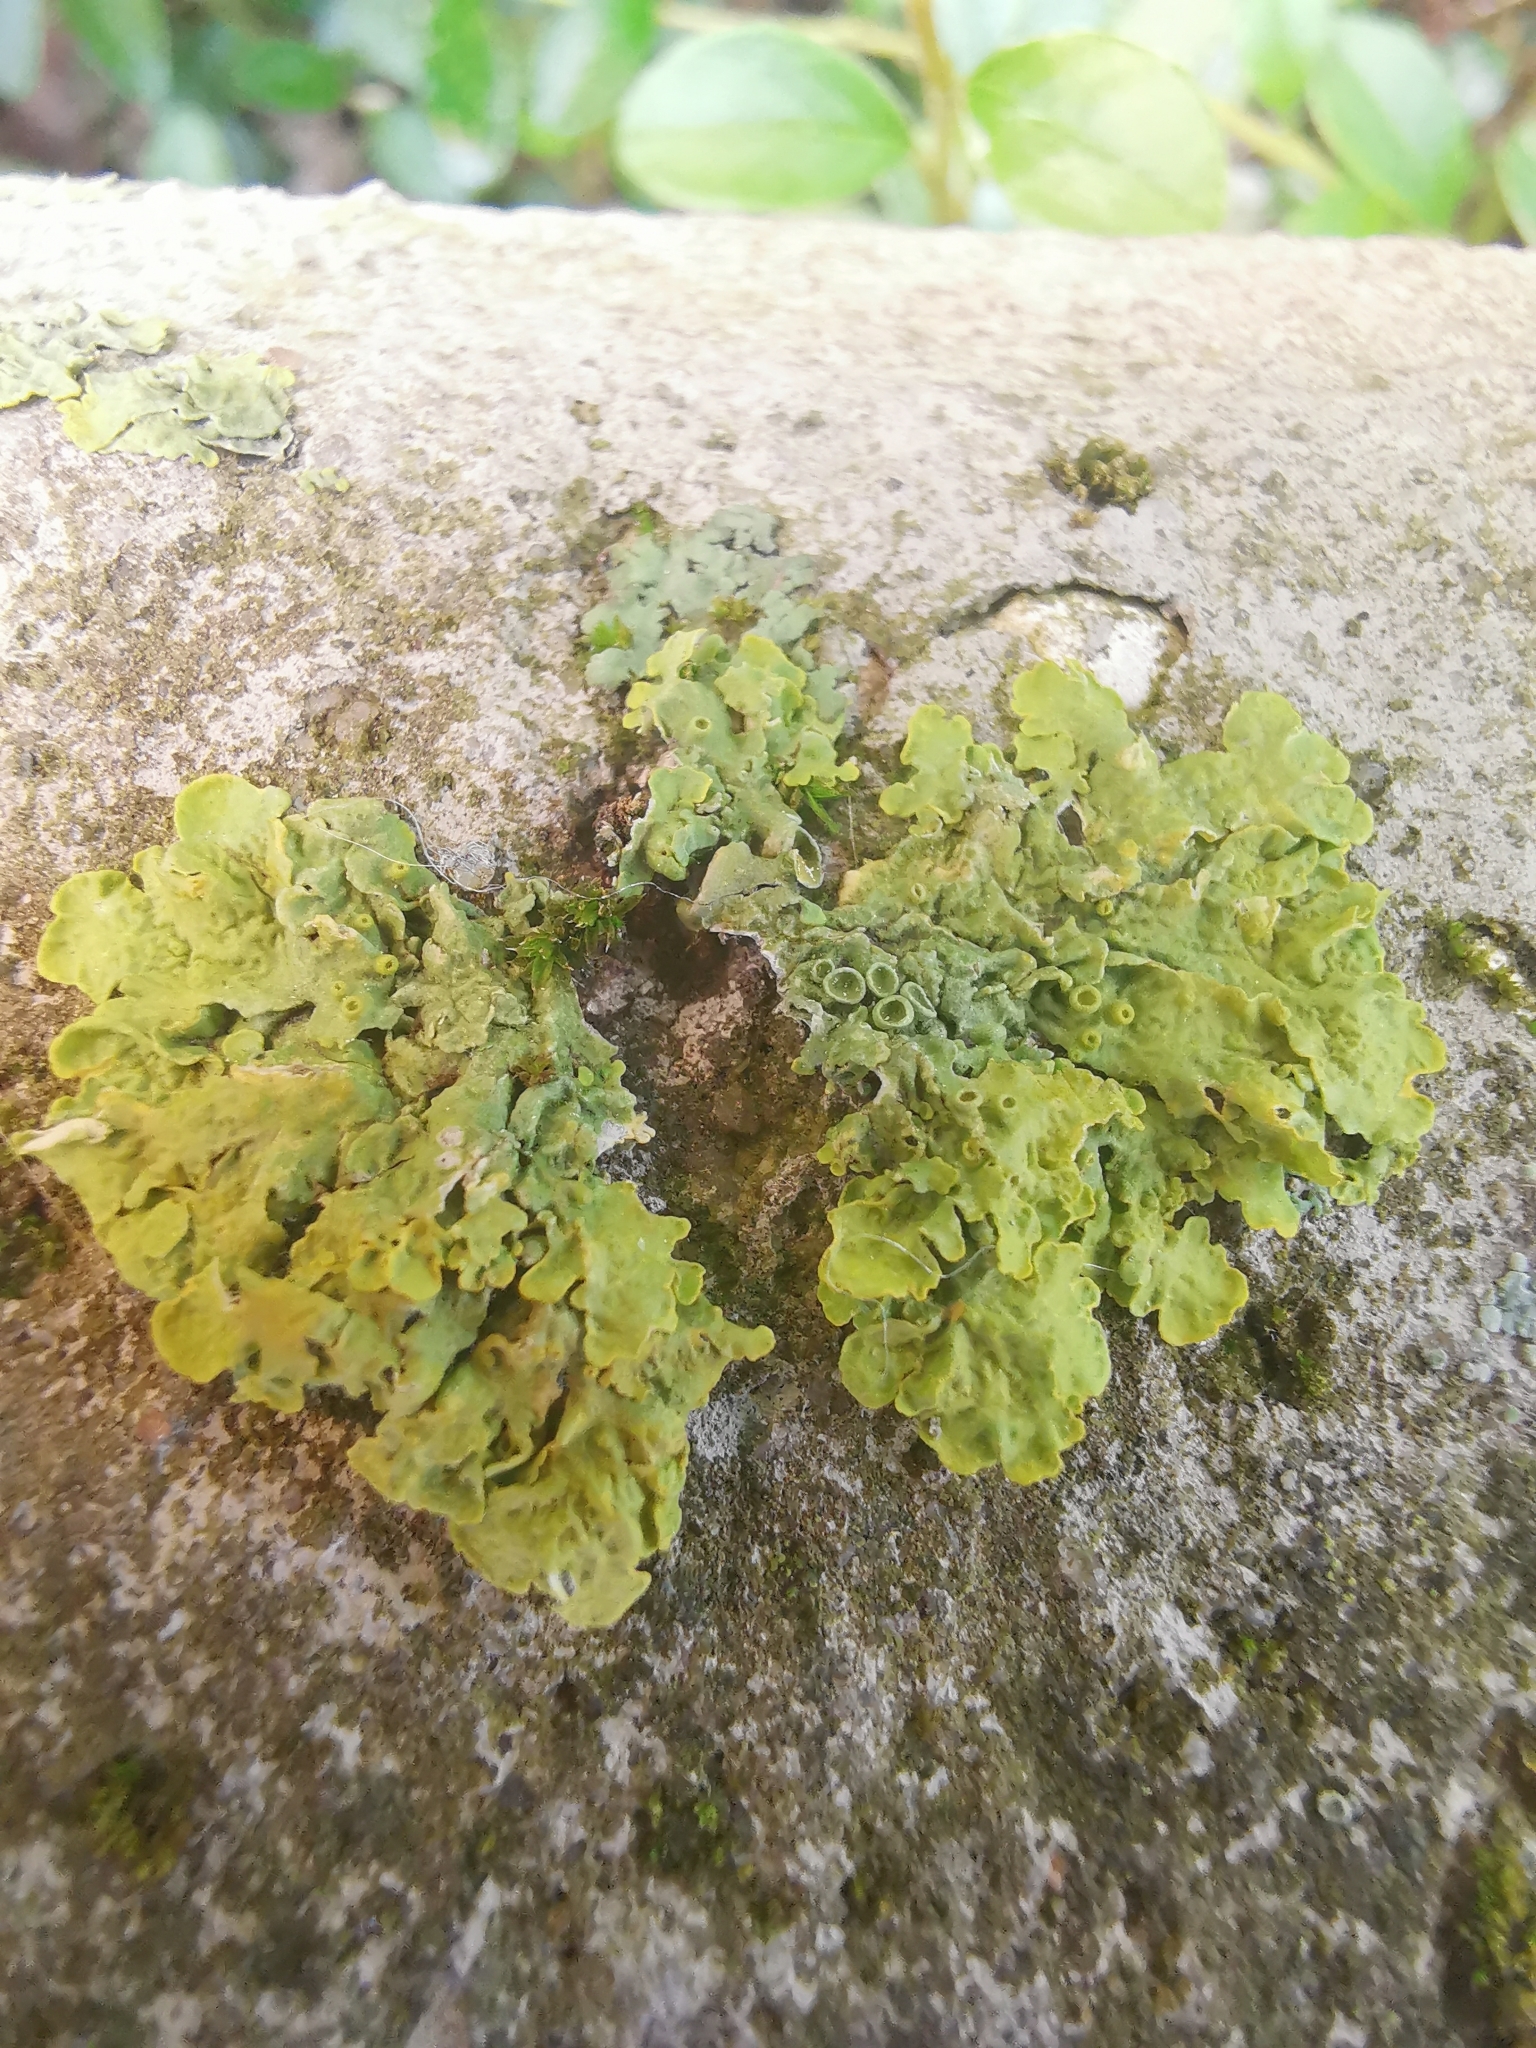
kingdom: Fungi
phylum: Ascomycota
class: Lecanoromycetes
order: Teloschistales
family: Teloschistaceae
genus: Xanthoria
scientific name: Xanthoria parietina
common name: Common orange lichen
